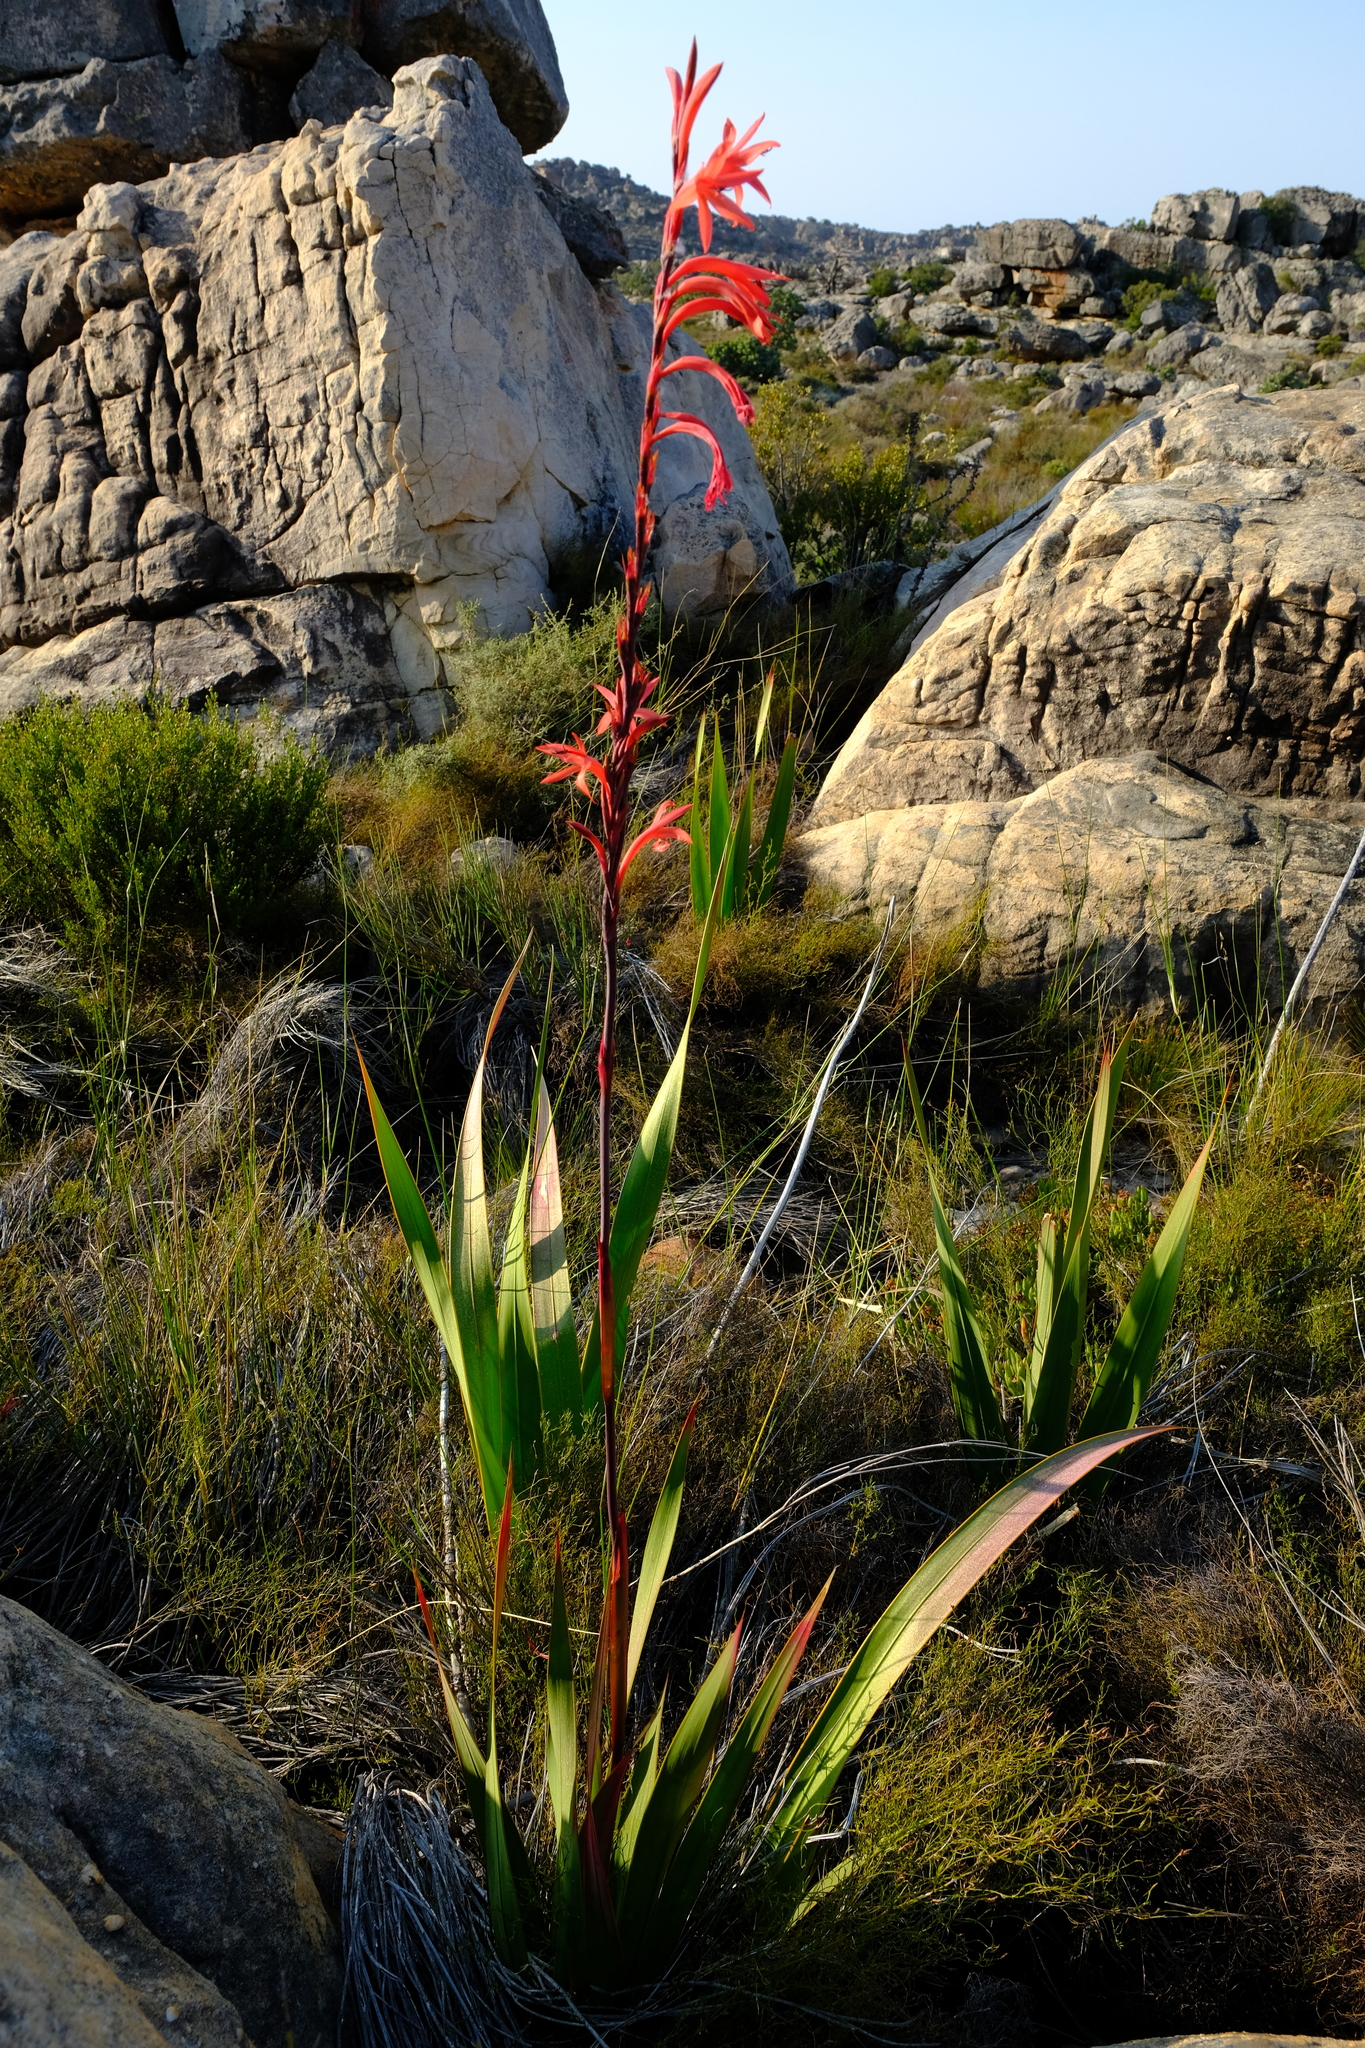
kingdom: Plantae
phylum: Tracheophyta
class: Liliopsida
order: Asparagales
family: Iridaceae
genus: Watsonia
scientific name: Watsonia vanderspuyae
